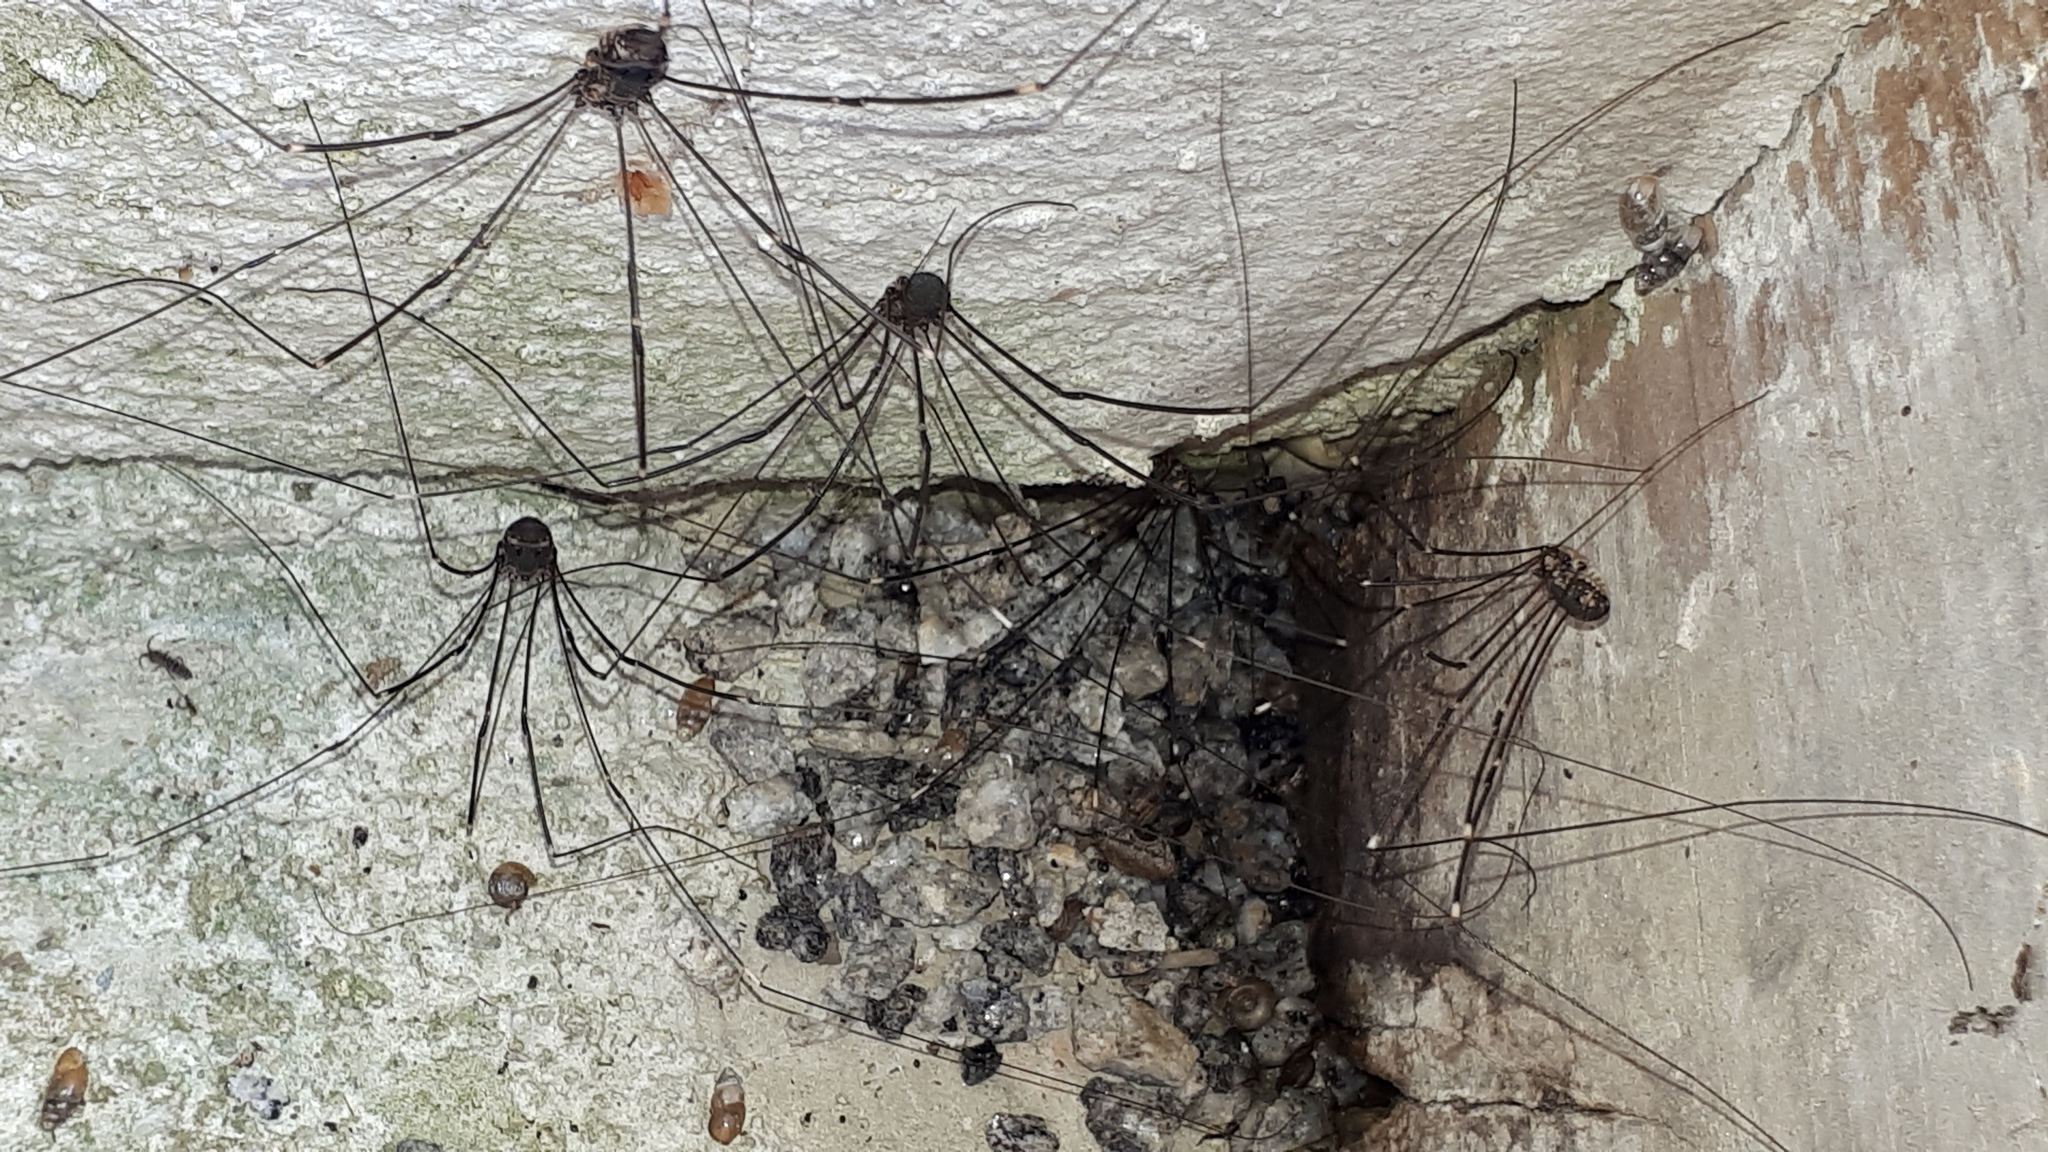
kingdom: Animalia
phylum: Arthropoda
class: Arachnida
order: Opiliones
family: Sclerosomatidae
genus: Leiobunum
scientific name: Leiobunum
